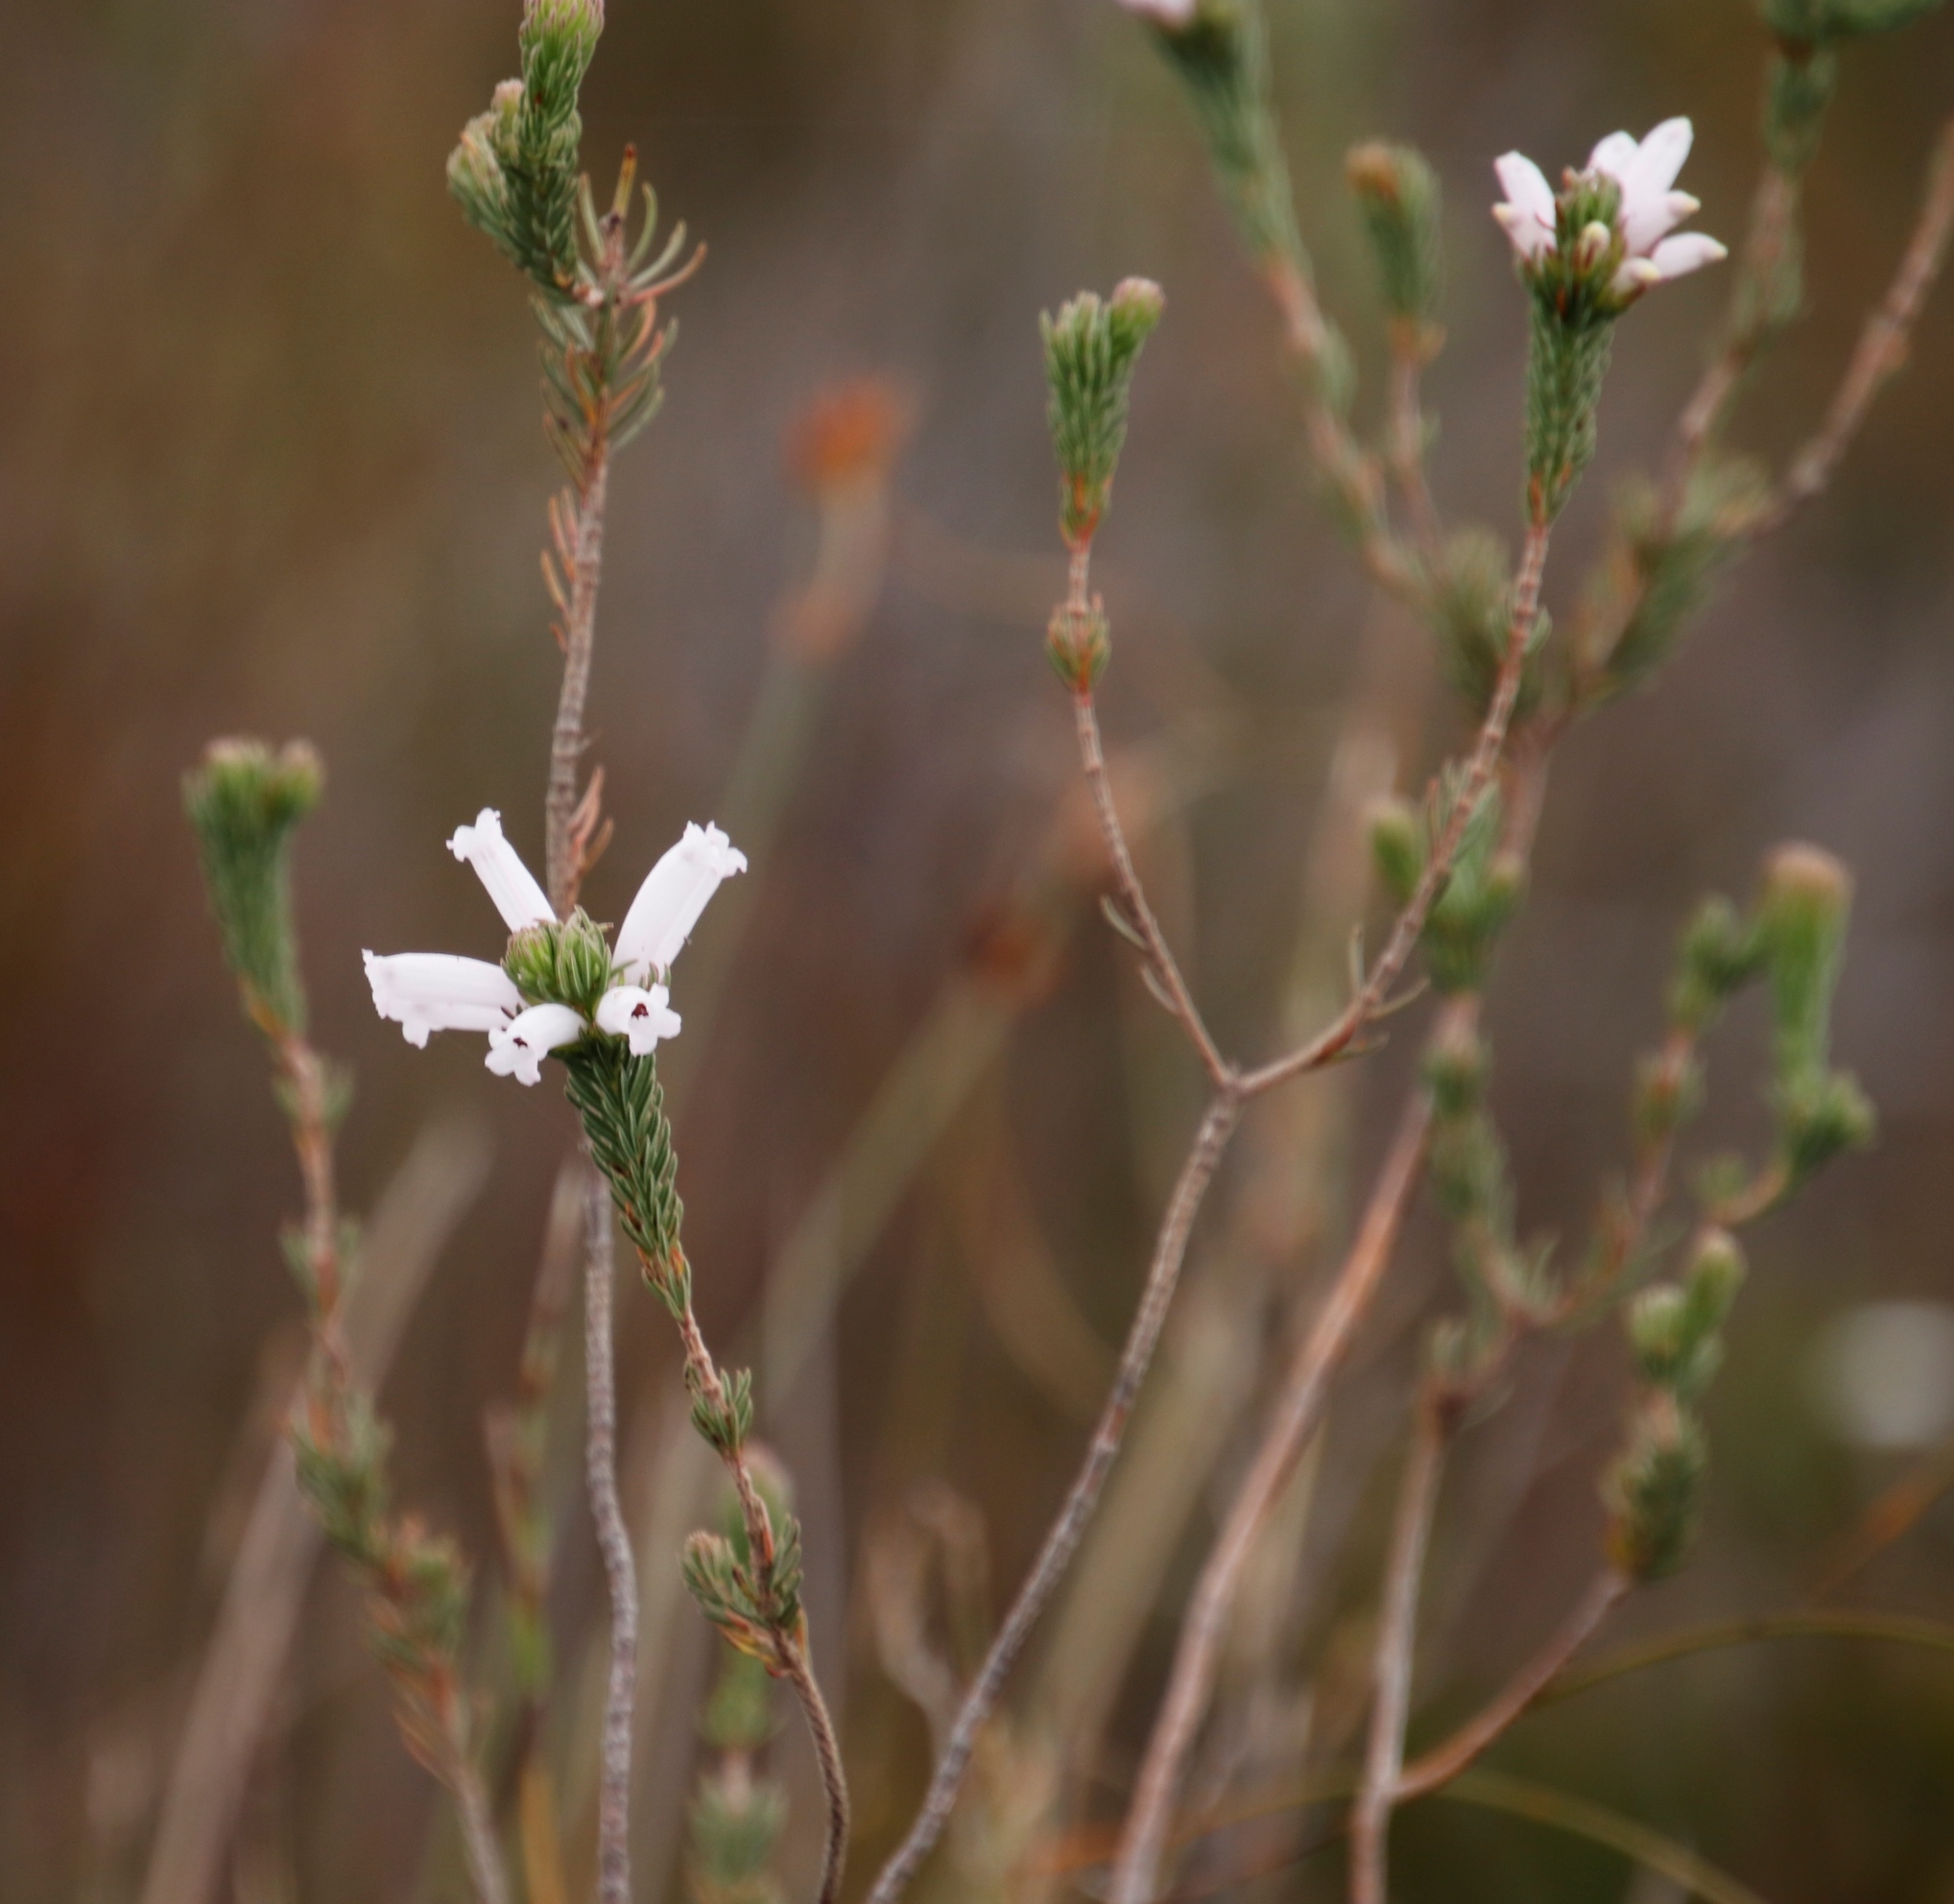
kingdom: Plantae
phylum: Tracheophyta
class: Magnoliopsida
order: Ericales
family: Ericaceae
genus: Erica
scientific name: Erica viscaria
